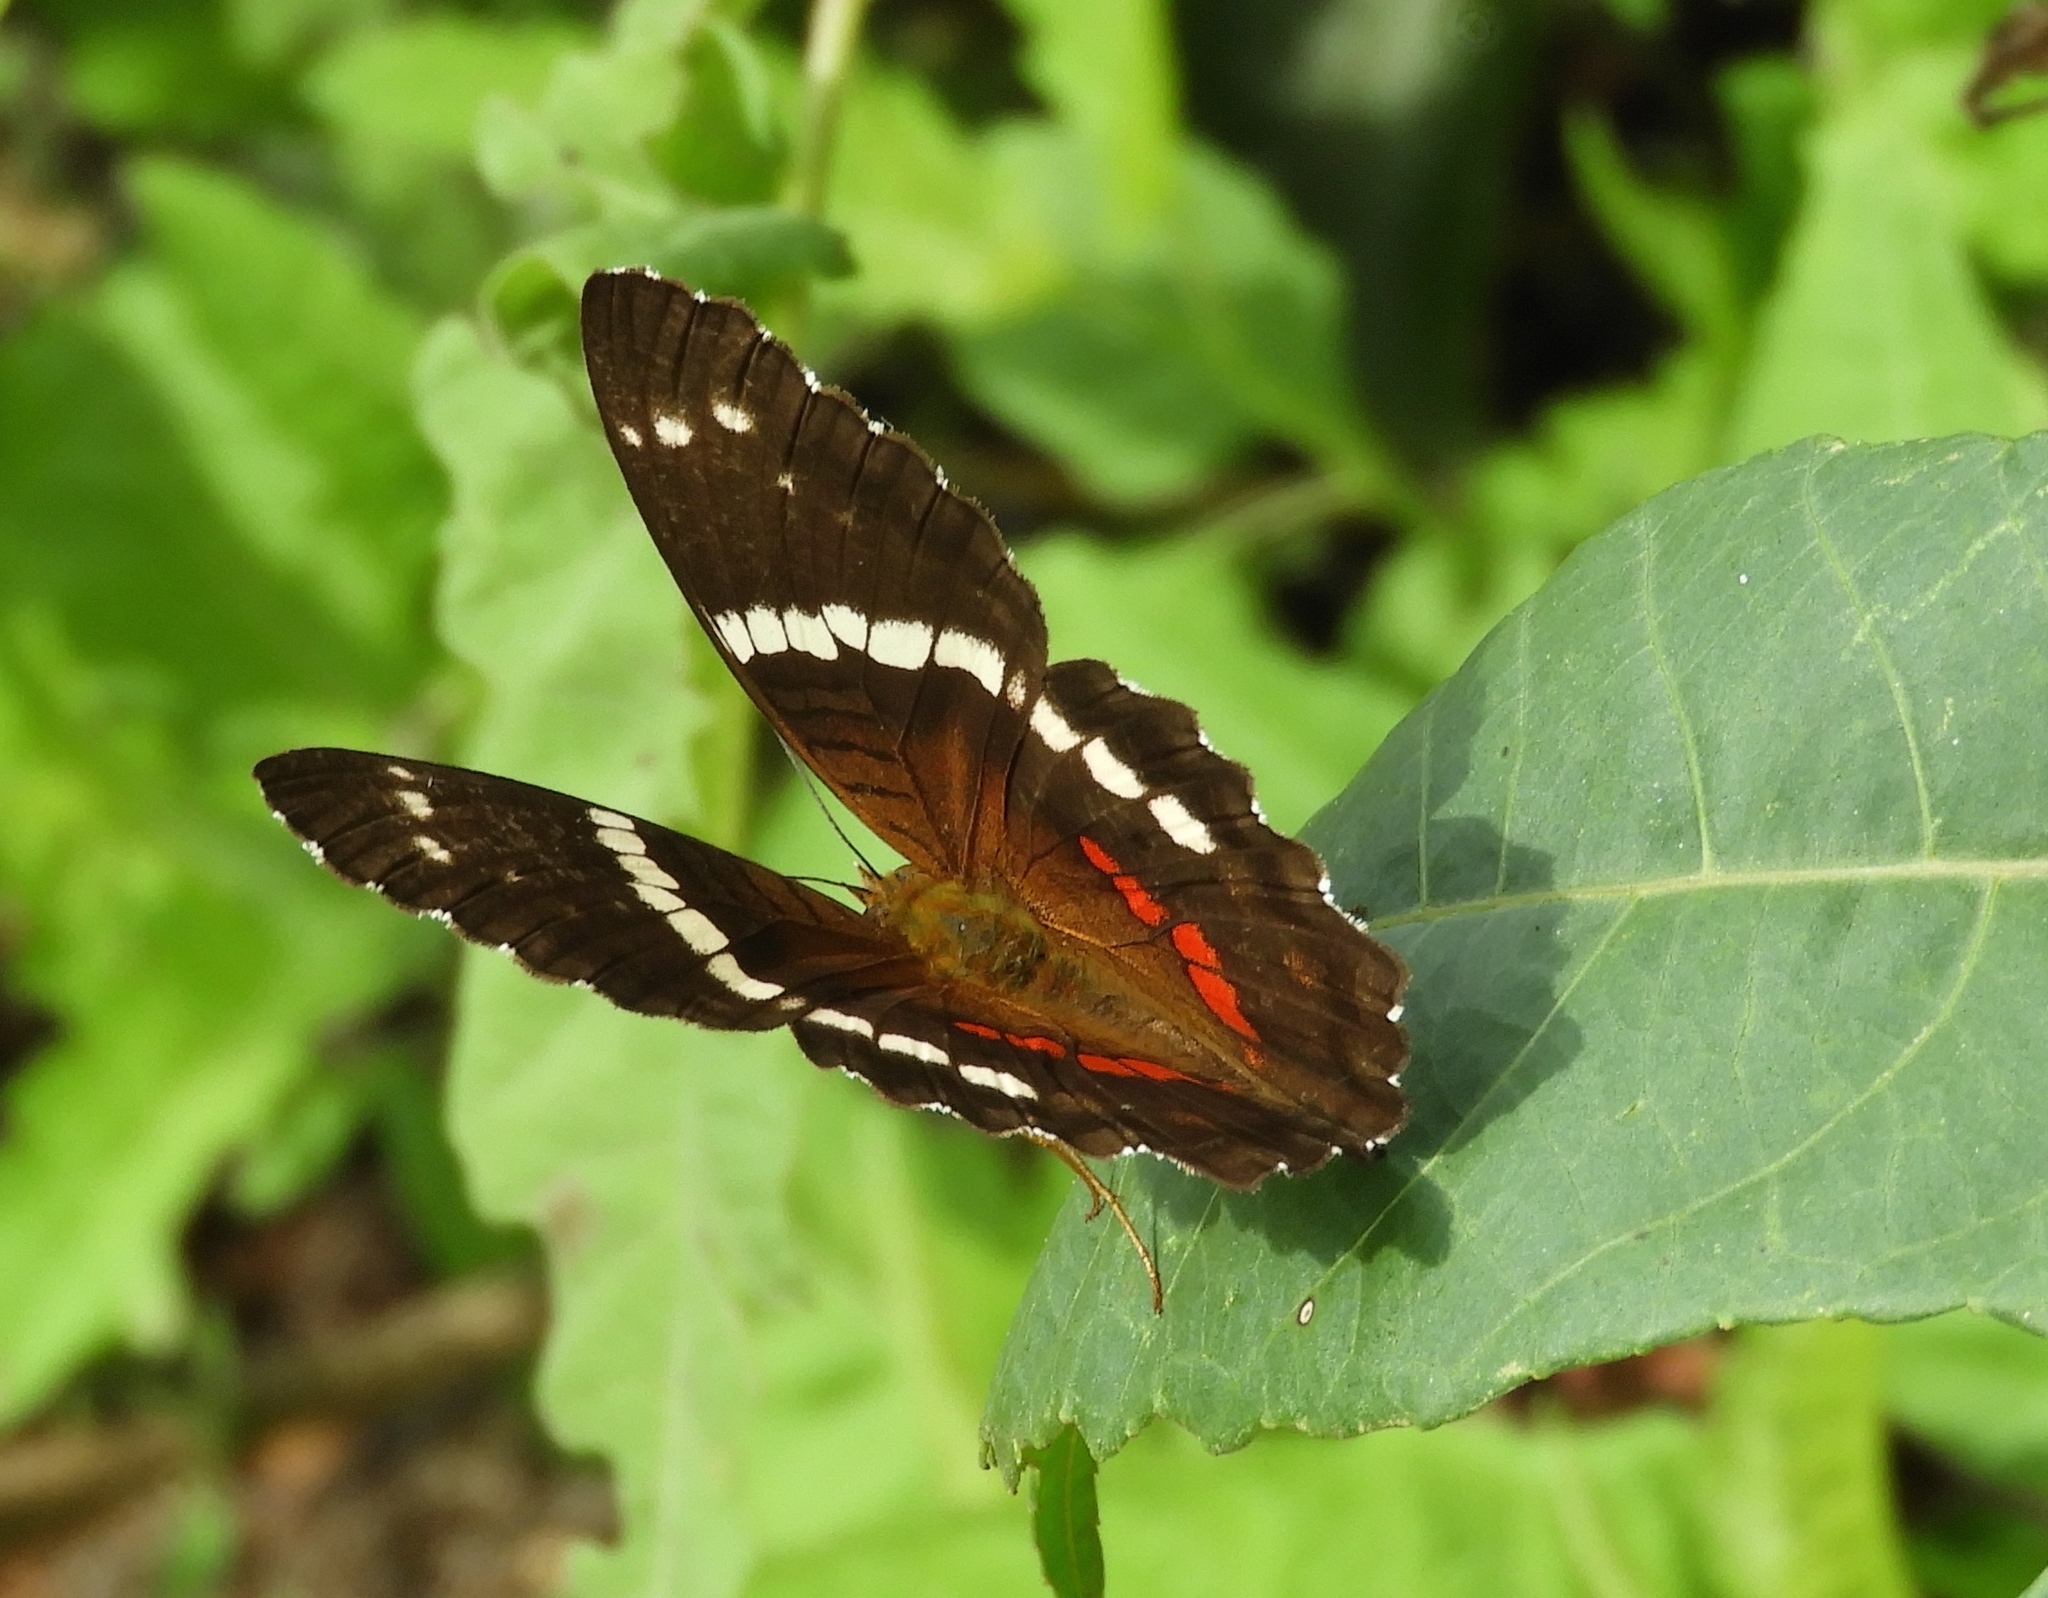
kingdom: Animalia
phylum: Arthropoda
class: Insecta
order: Lepidoptera
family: Nymphalidae
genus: Anartia
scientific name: Anartia fatima
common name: Banded peacock
